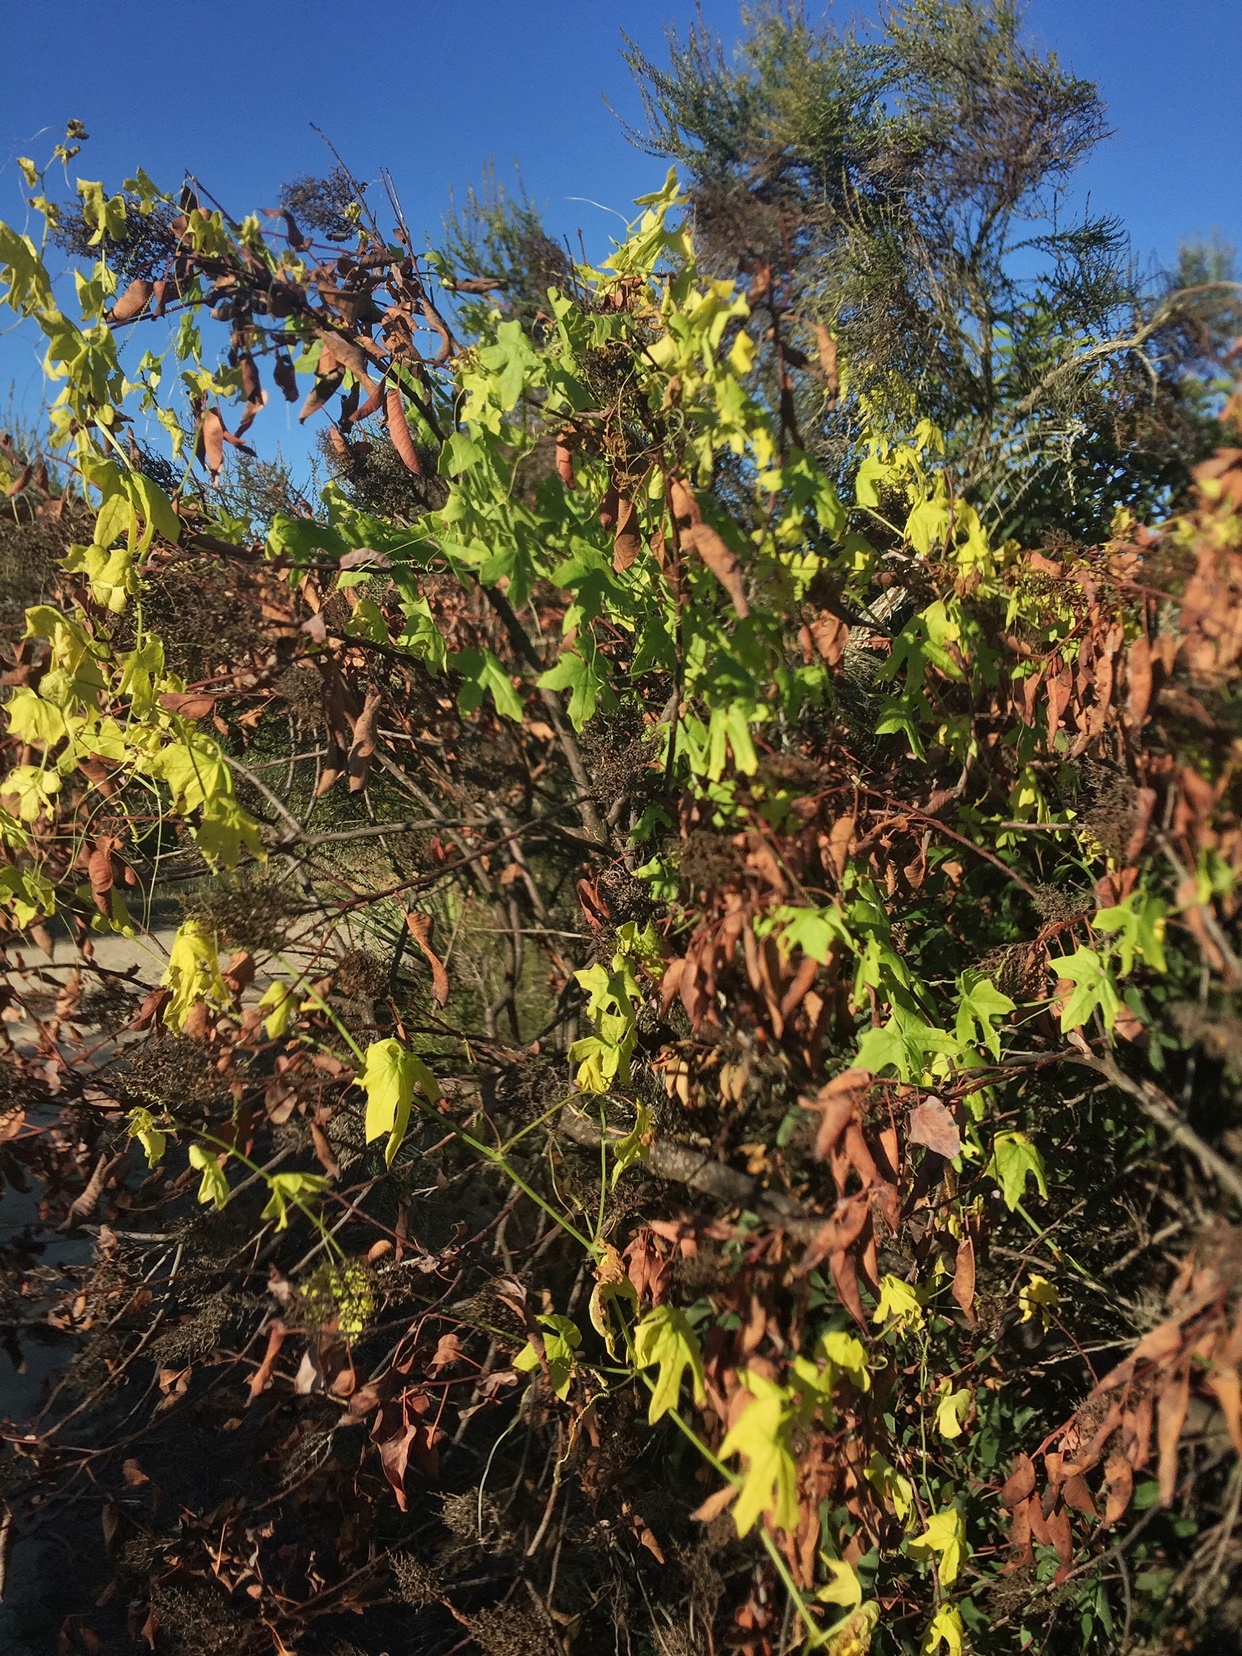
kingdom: Plantae
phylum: Tracheophyta
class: Magnoliopsida
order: Cucurbitales
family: Cucurbitaceae
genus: Marah
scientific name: Marah macrocarpa
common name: Cucamonga manroot
